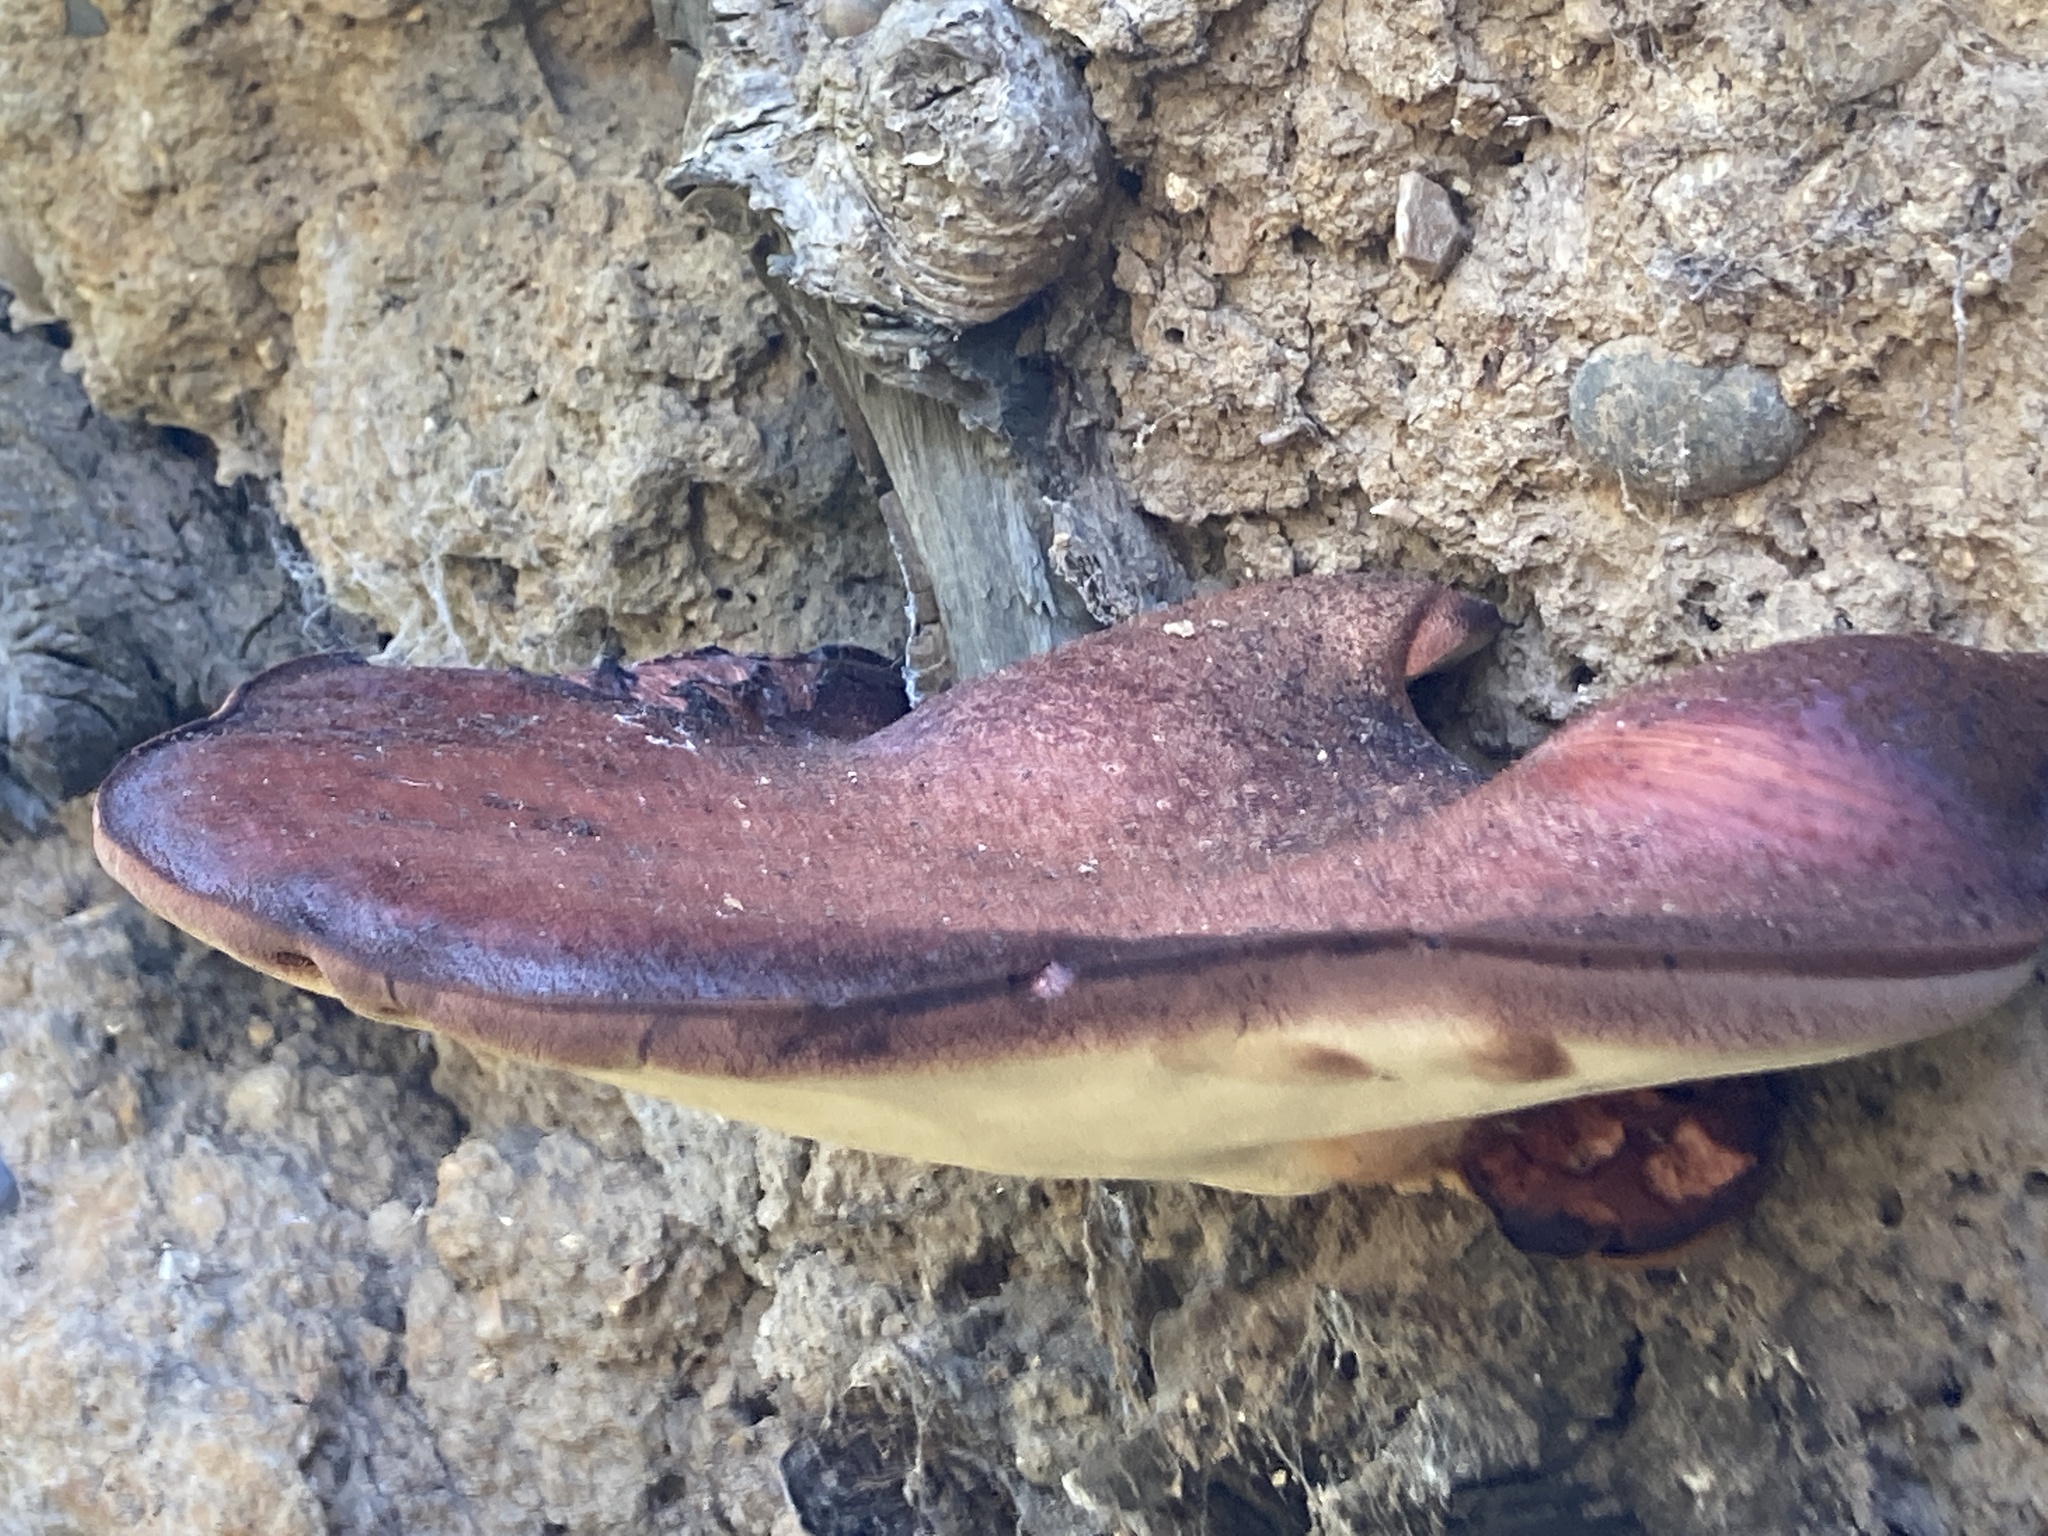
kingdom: Fungi
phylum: Basidiomycota
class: Agaricomycetes
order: Agaricales
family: Fistulinaceae
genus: Fistulina
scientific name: Fistulina hepatica
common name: Beef-steak fungus
